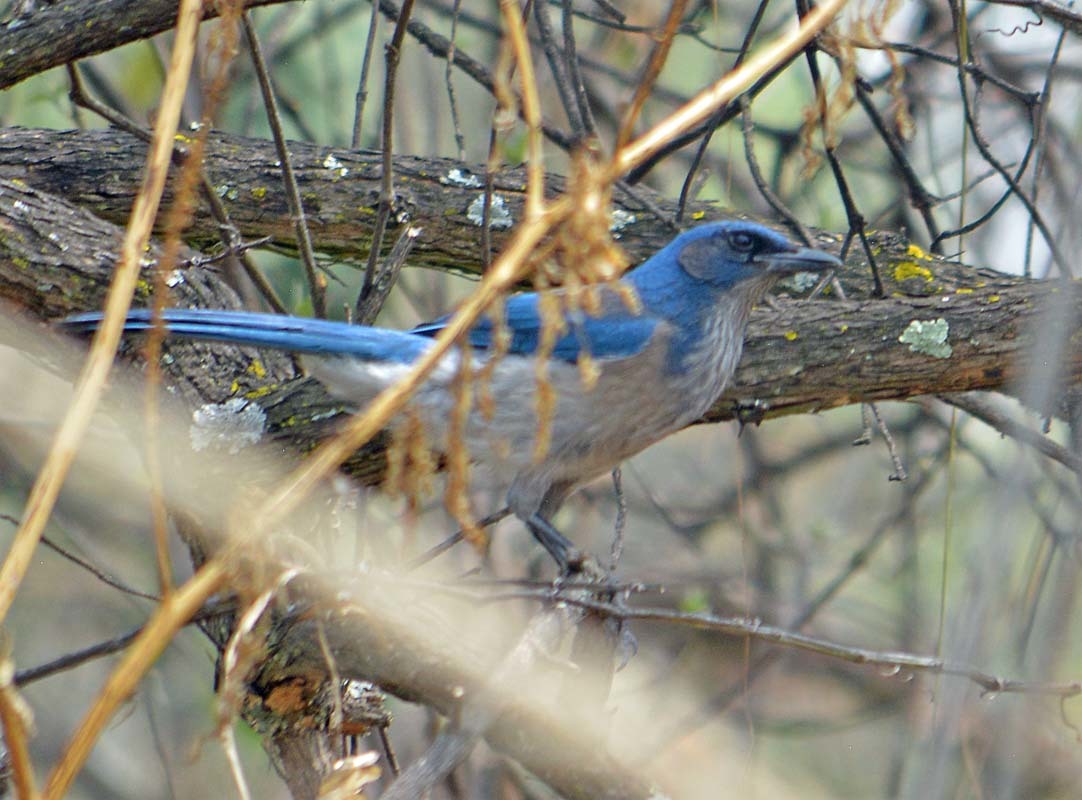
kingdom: Animalia
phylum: Chordata
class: Aves
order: Passeriformes
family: Corvidae
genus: Aphelocoma
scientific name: Aphelocoma ultramarina
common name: Transvolcanic jay
